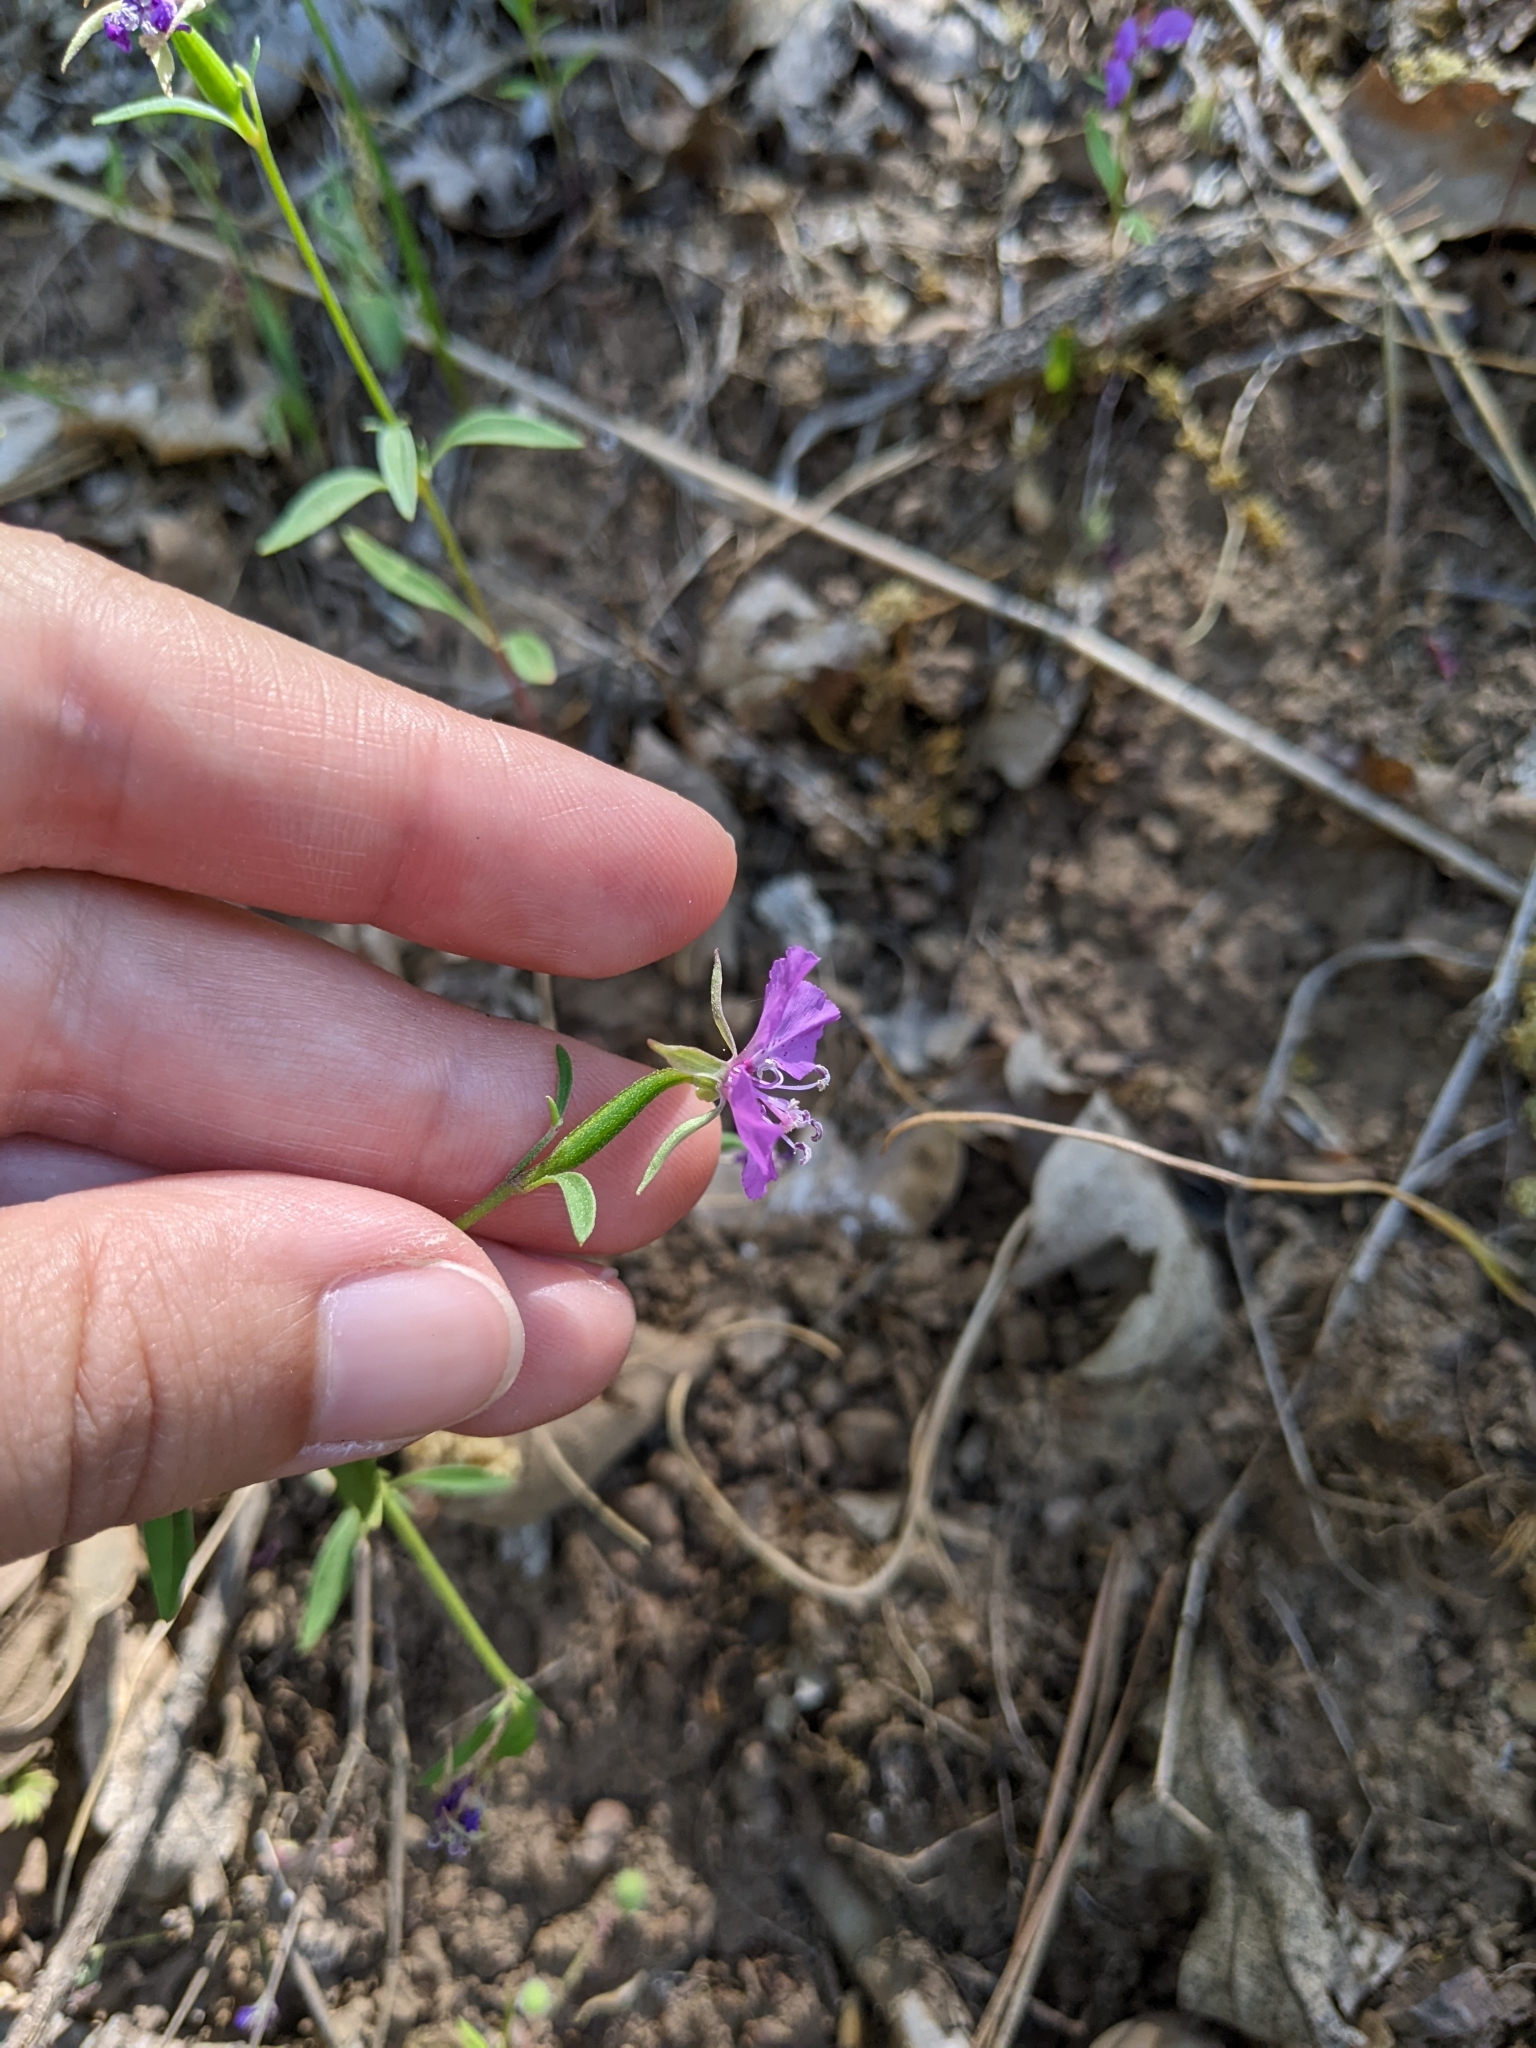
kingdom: Plantae
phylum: Tracheophyta
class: Magnoliopsida
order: Myrtales
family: Onagraceae
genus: Clarkia
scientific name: Clarkia rhomboidea
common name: Broadleaf clarkia
